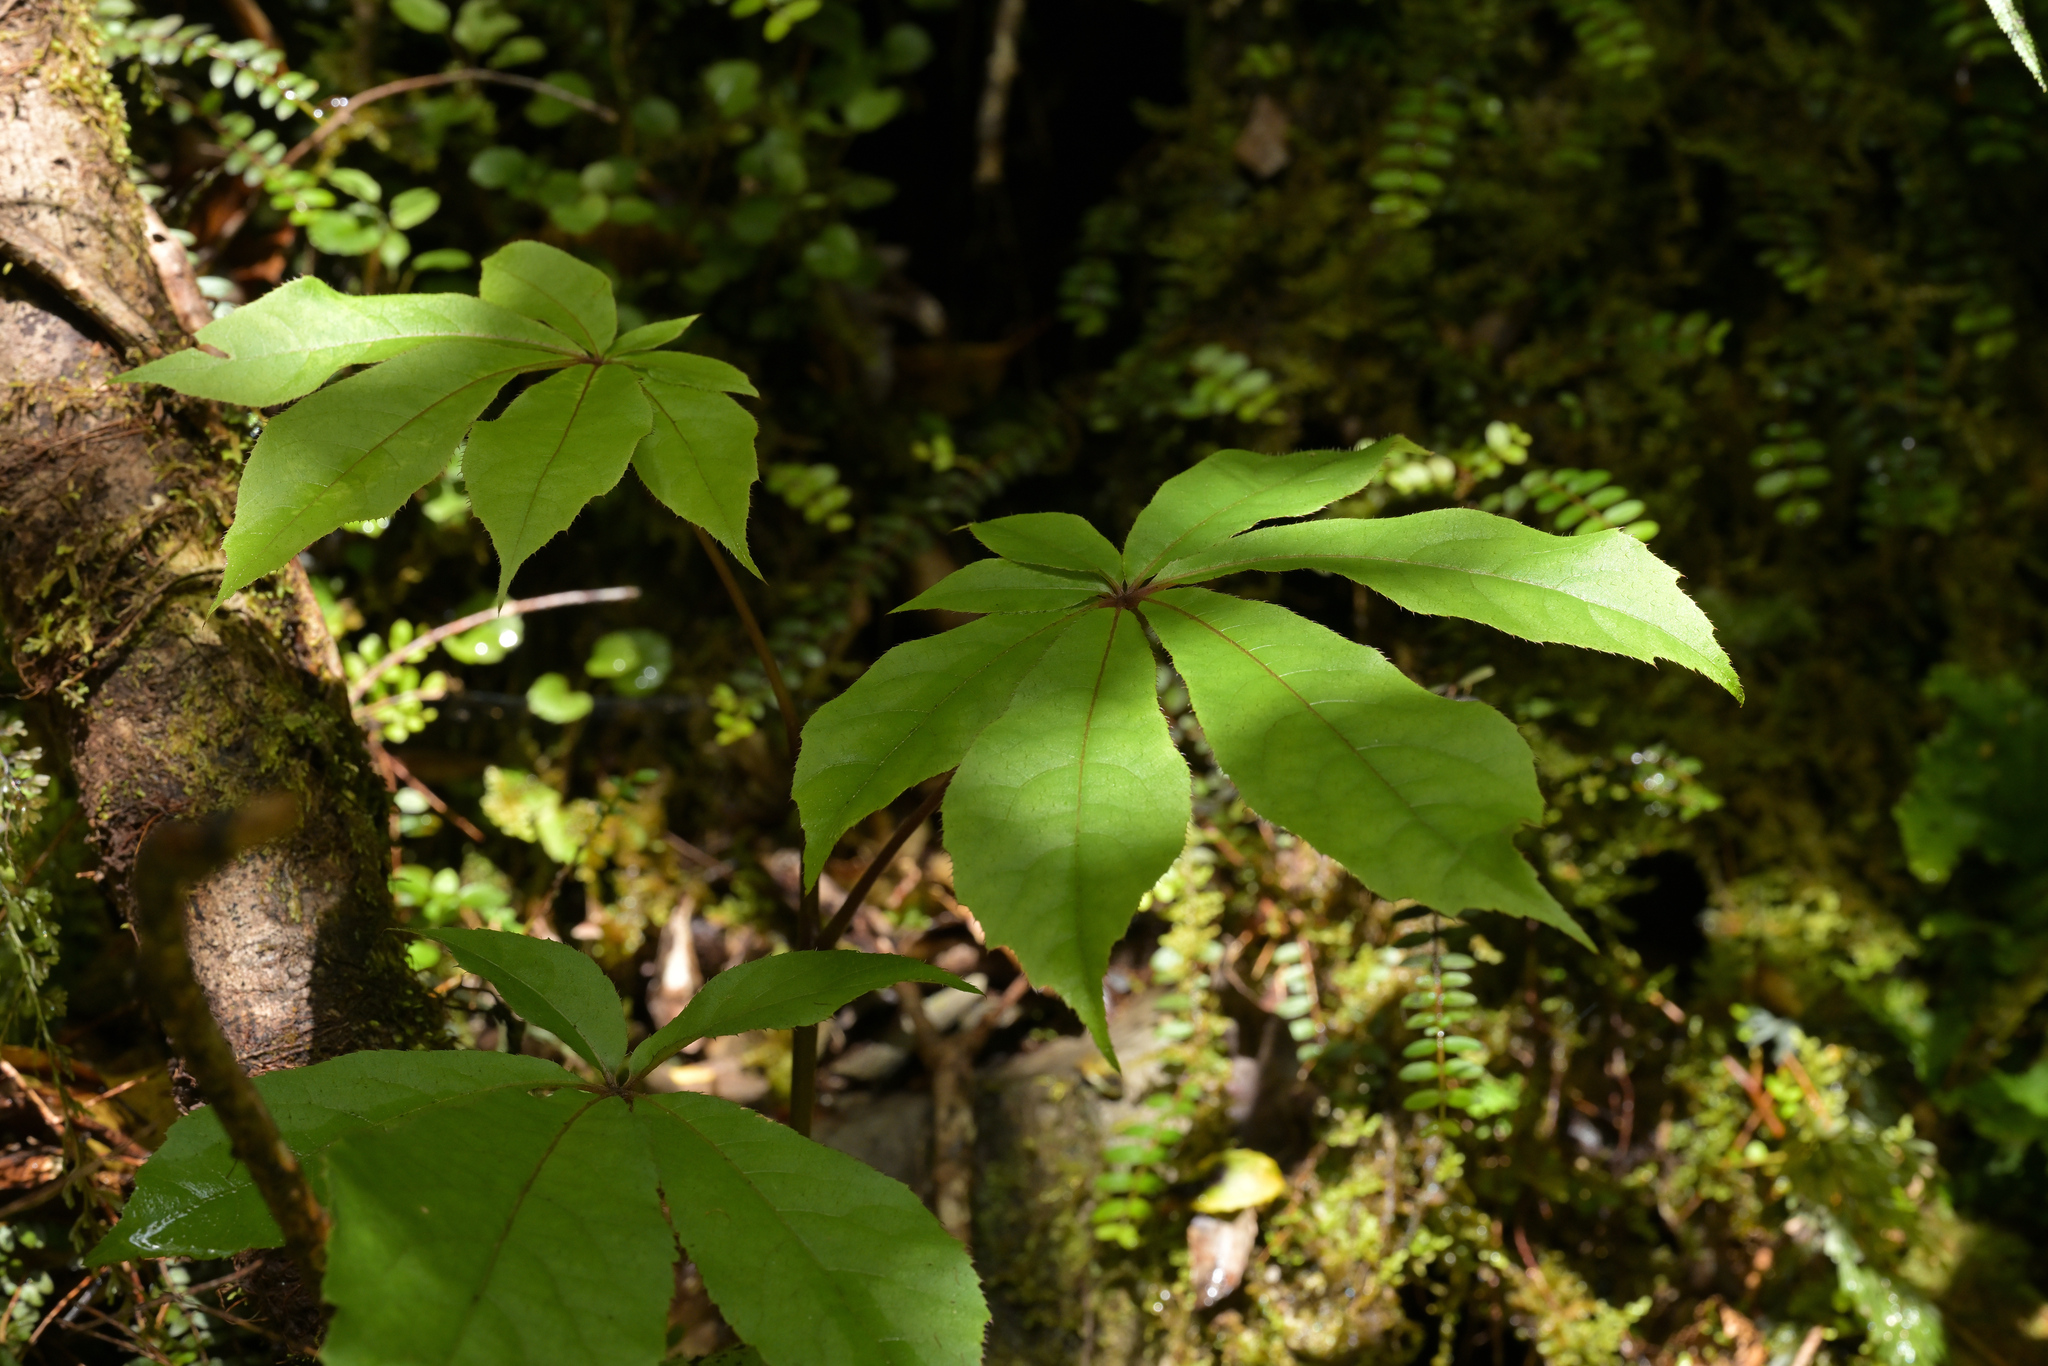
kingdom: Plantae
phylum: Tracheophyta
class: Magnoliopsida
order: Apiales
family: Araliaceae
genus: Schefflera
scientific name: Schefflera digitata
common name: Pate
